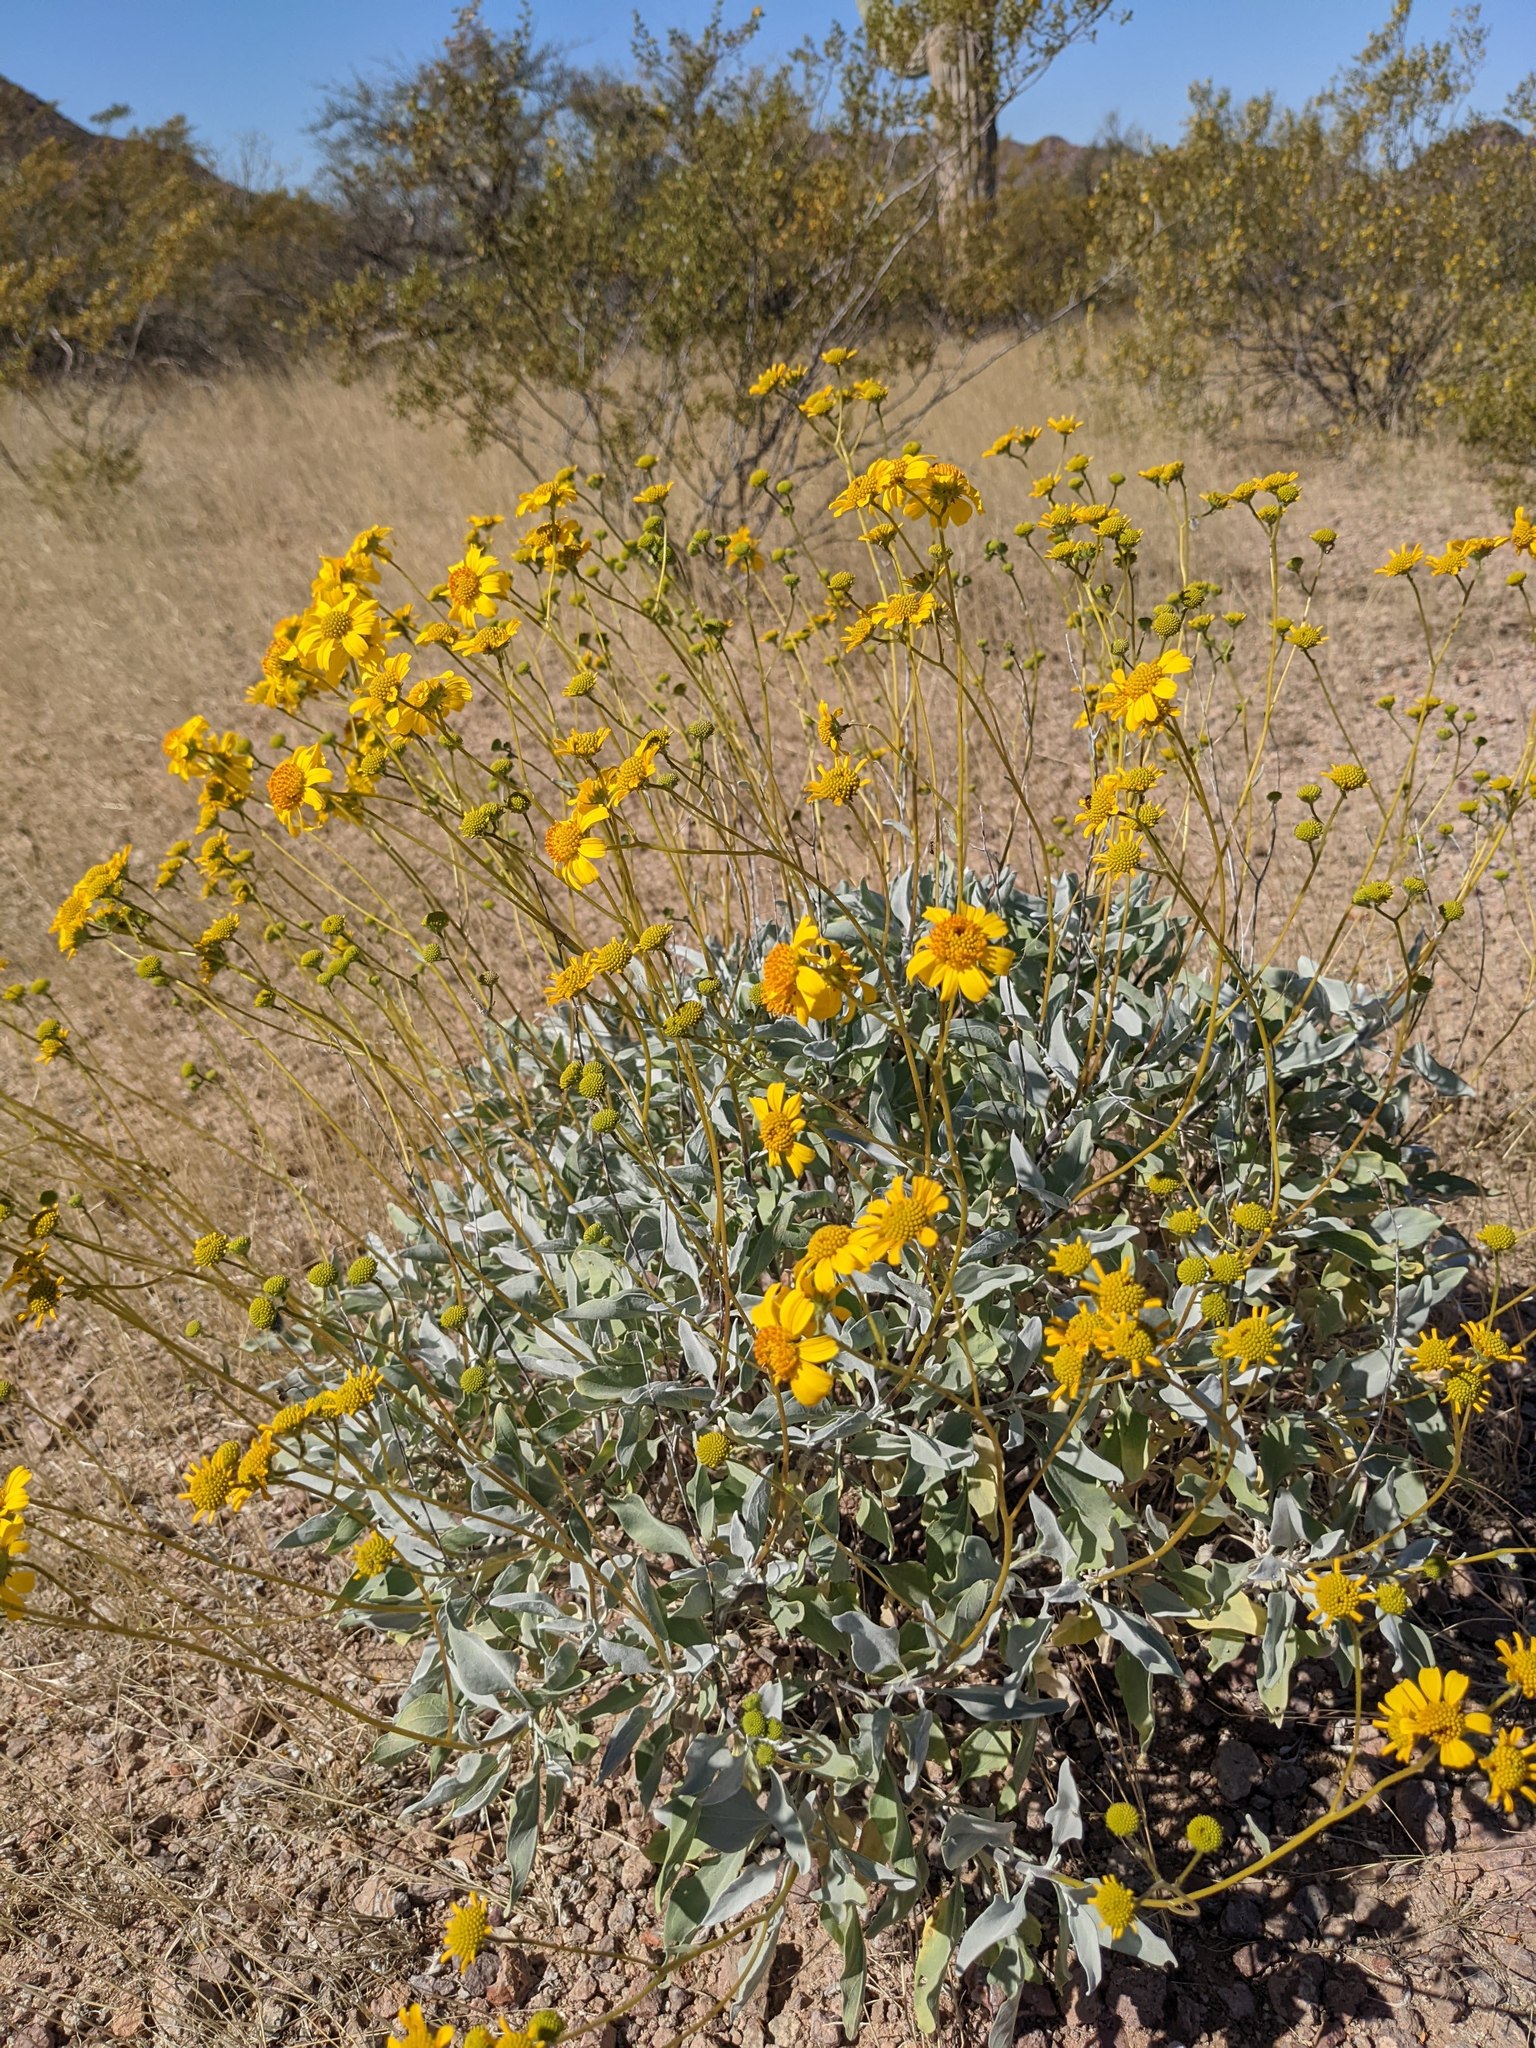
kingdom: Plantae
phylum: Tracheophyta
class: Magnoliopsida
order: Asterales
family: Asteraceae
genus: Encelia
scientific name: Encelia farinosa
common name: Brittlebush
